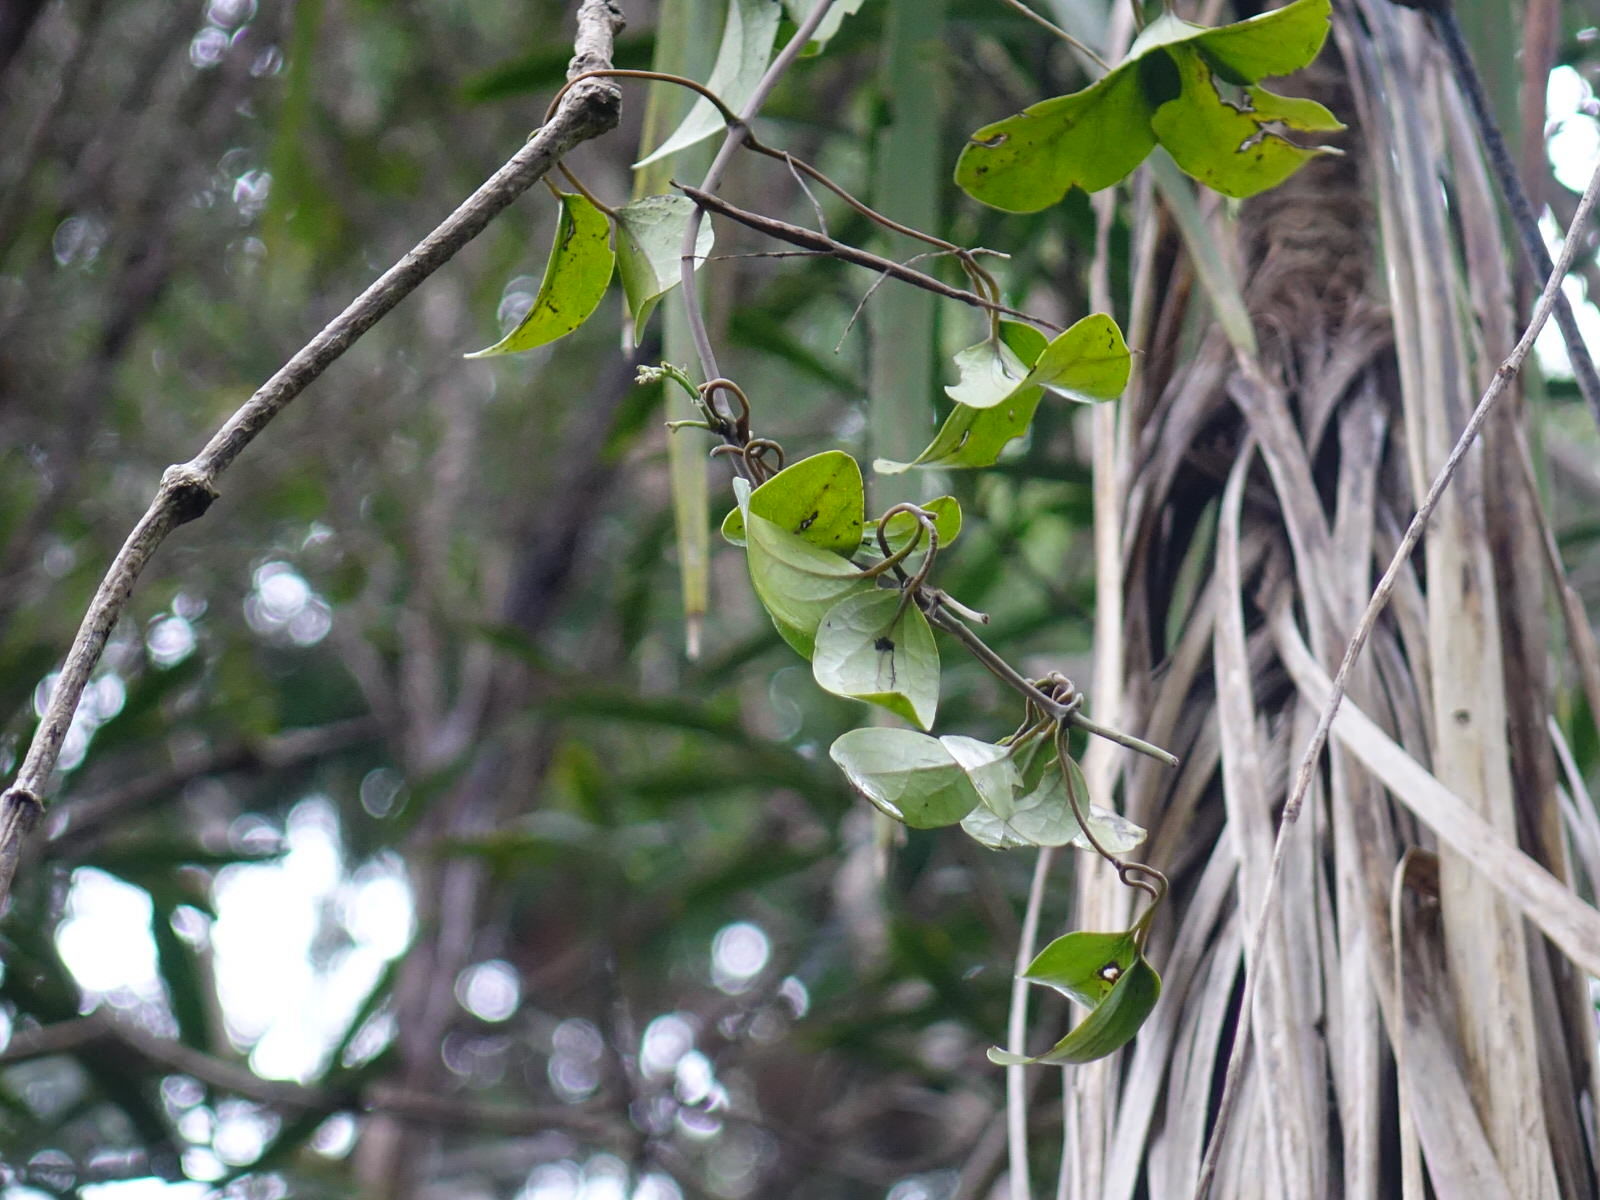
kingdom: Plantae
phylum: Tracheophyta
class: Magnoliopsida
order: Ranunculales
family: Ranunculaceae
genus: Clematis
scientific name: Clematis paniculata
